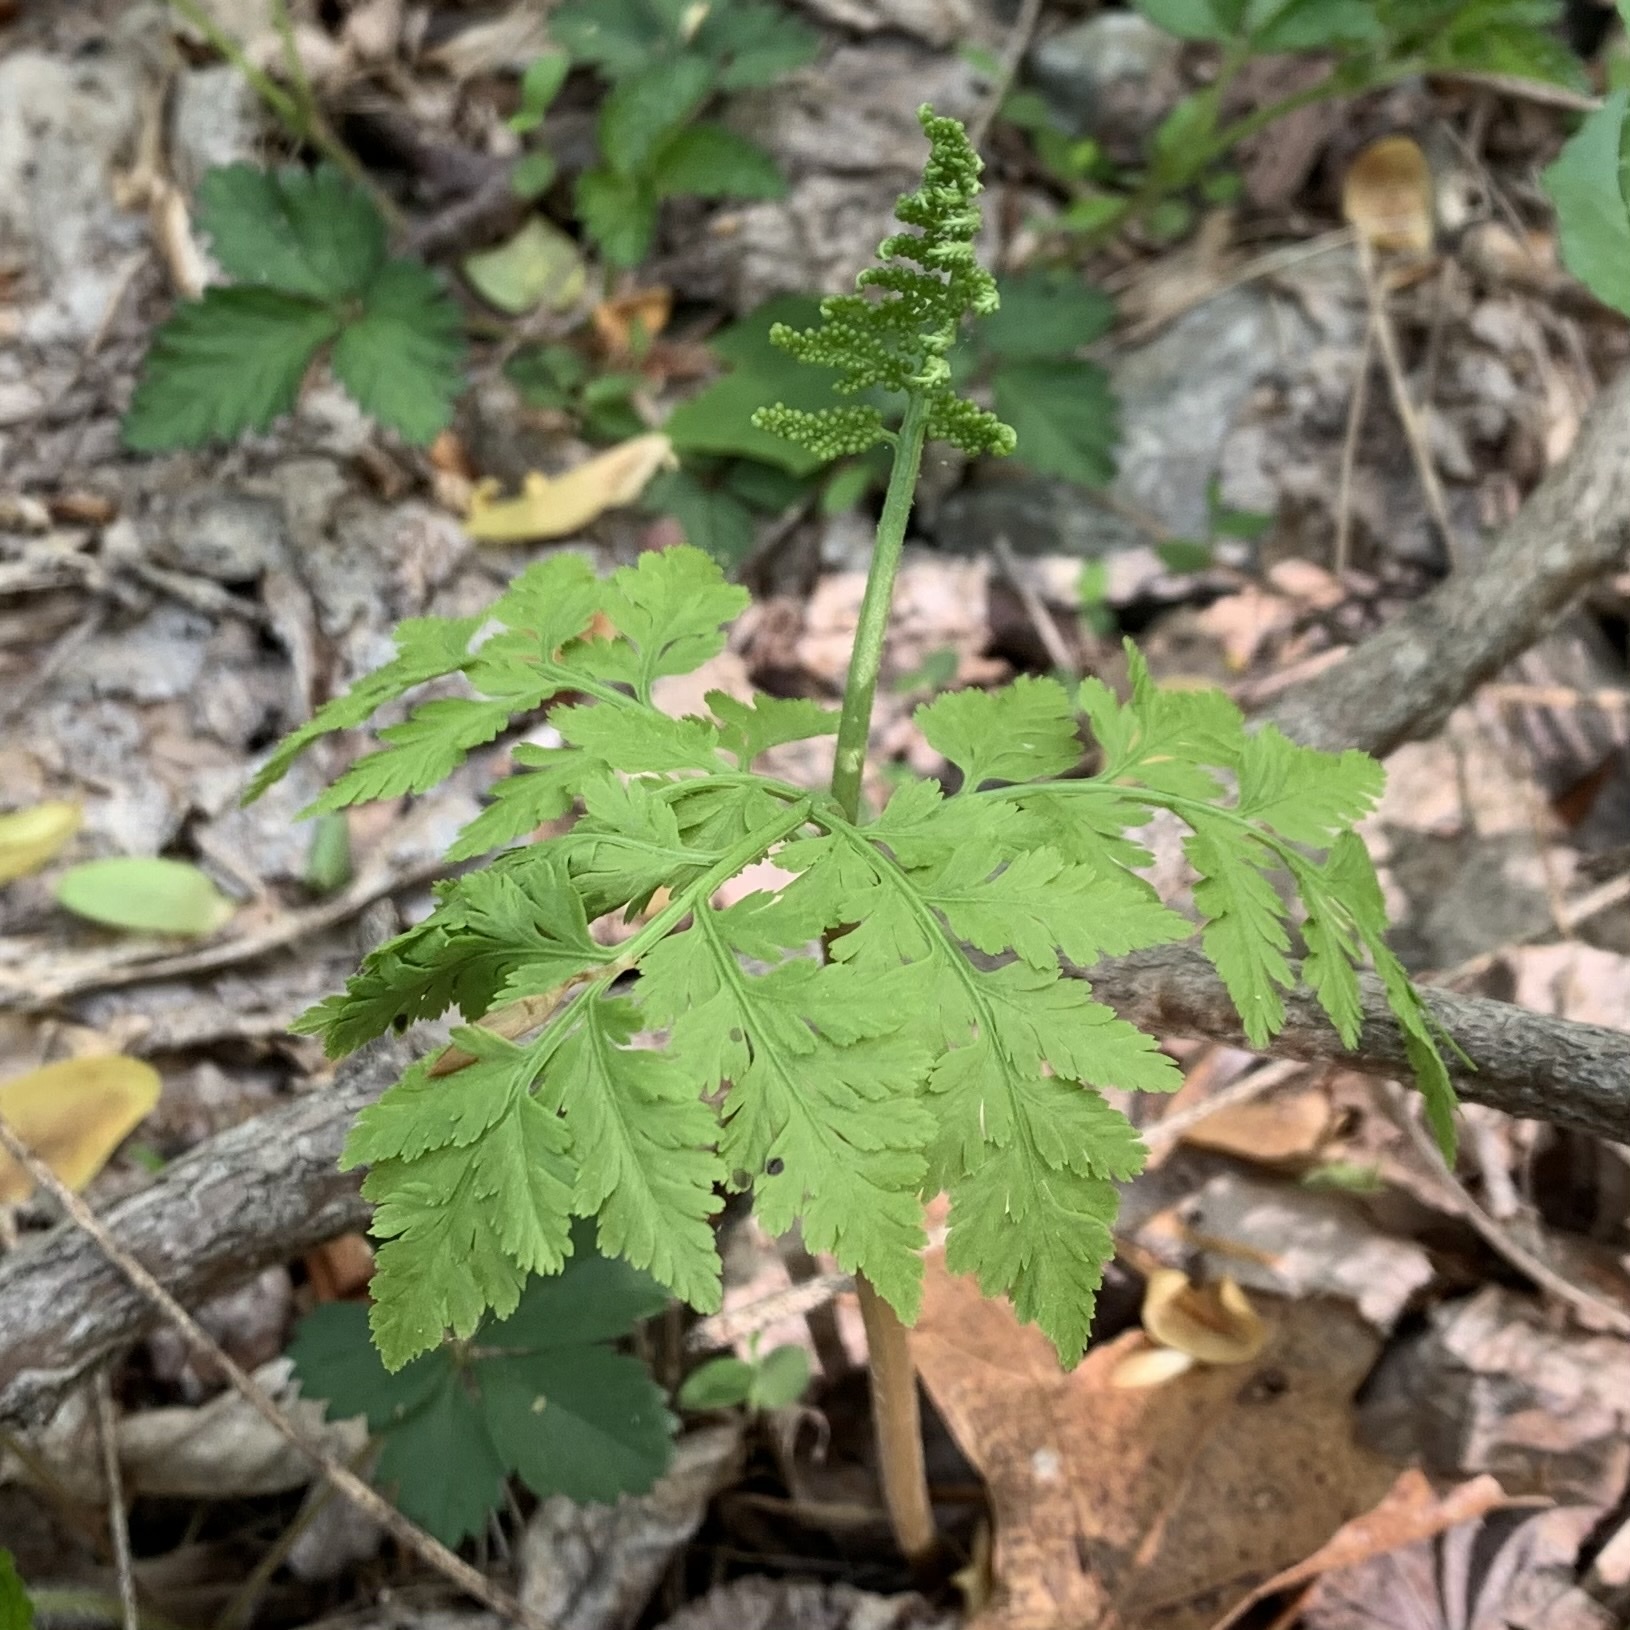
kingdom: Plantae
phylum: Tracheophyta
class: Polypodiopsida
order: Ophioglossales
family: Ophioglossaceae
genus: Botrypus
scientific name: Botrypus virginianus
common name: Common grapefern
